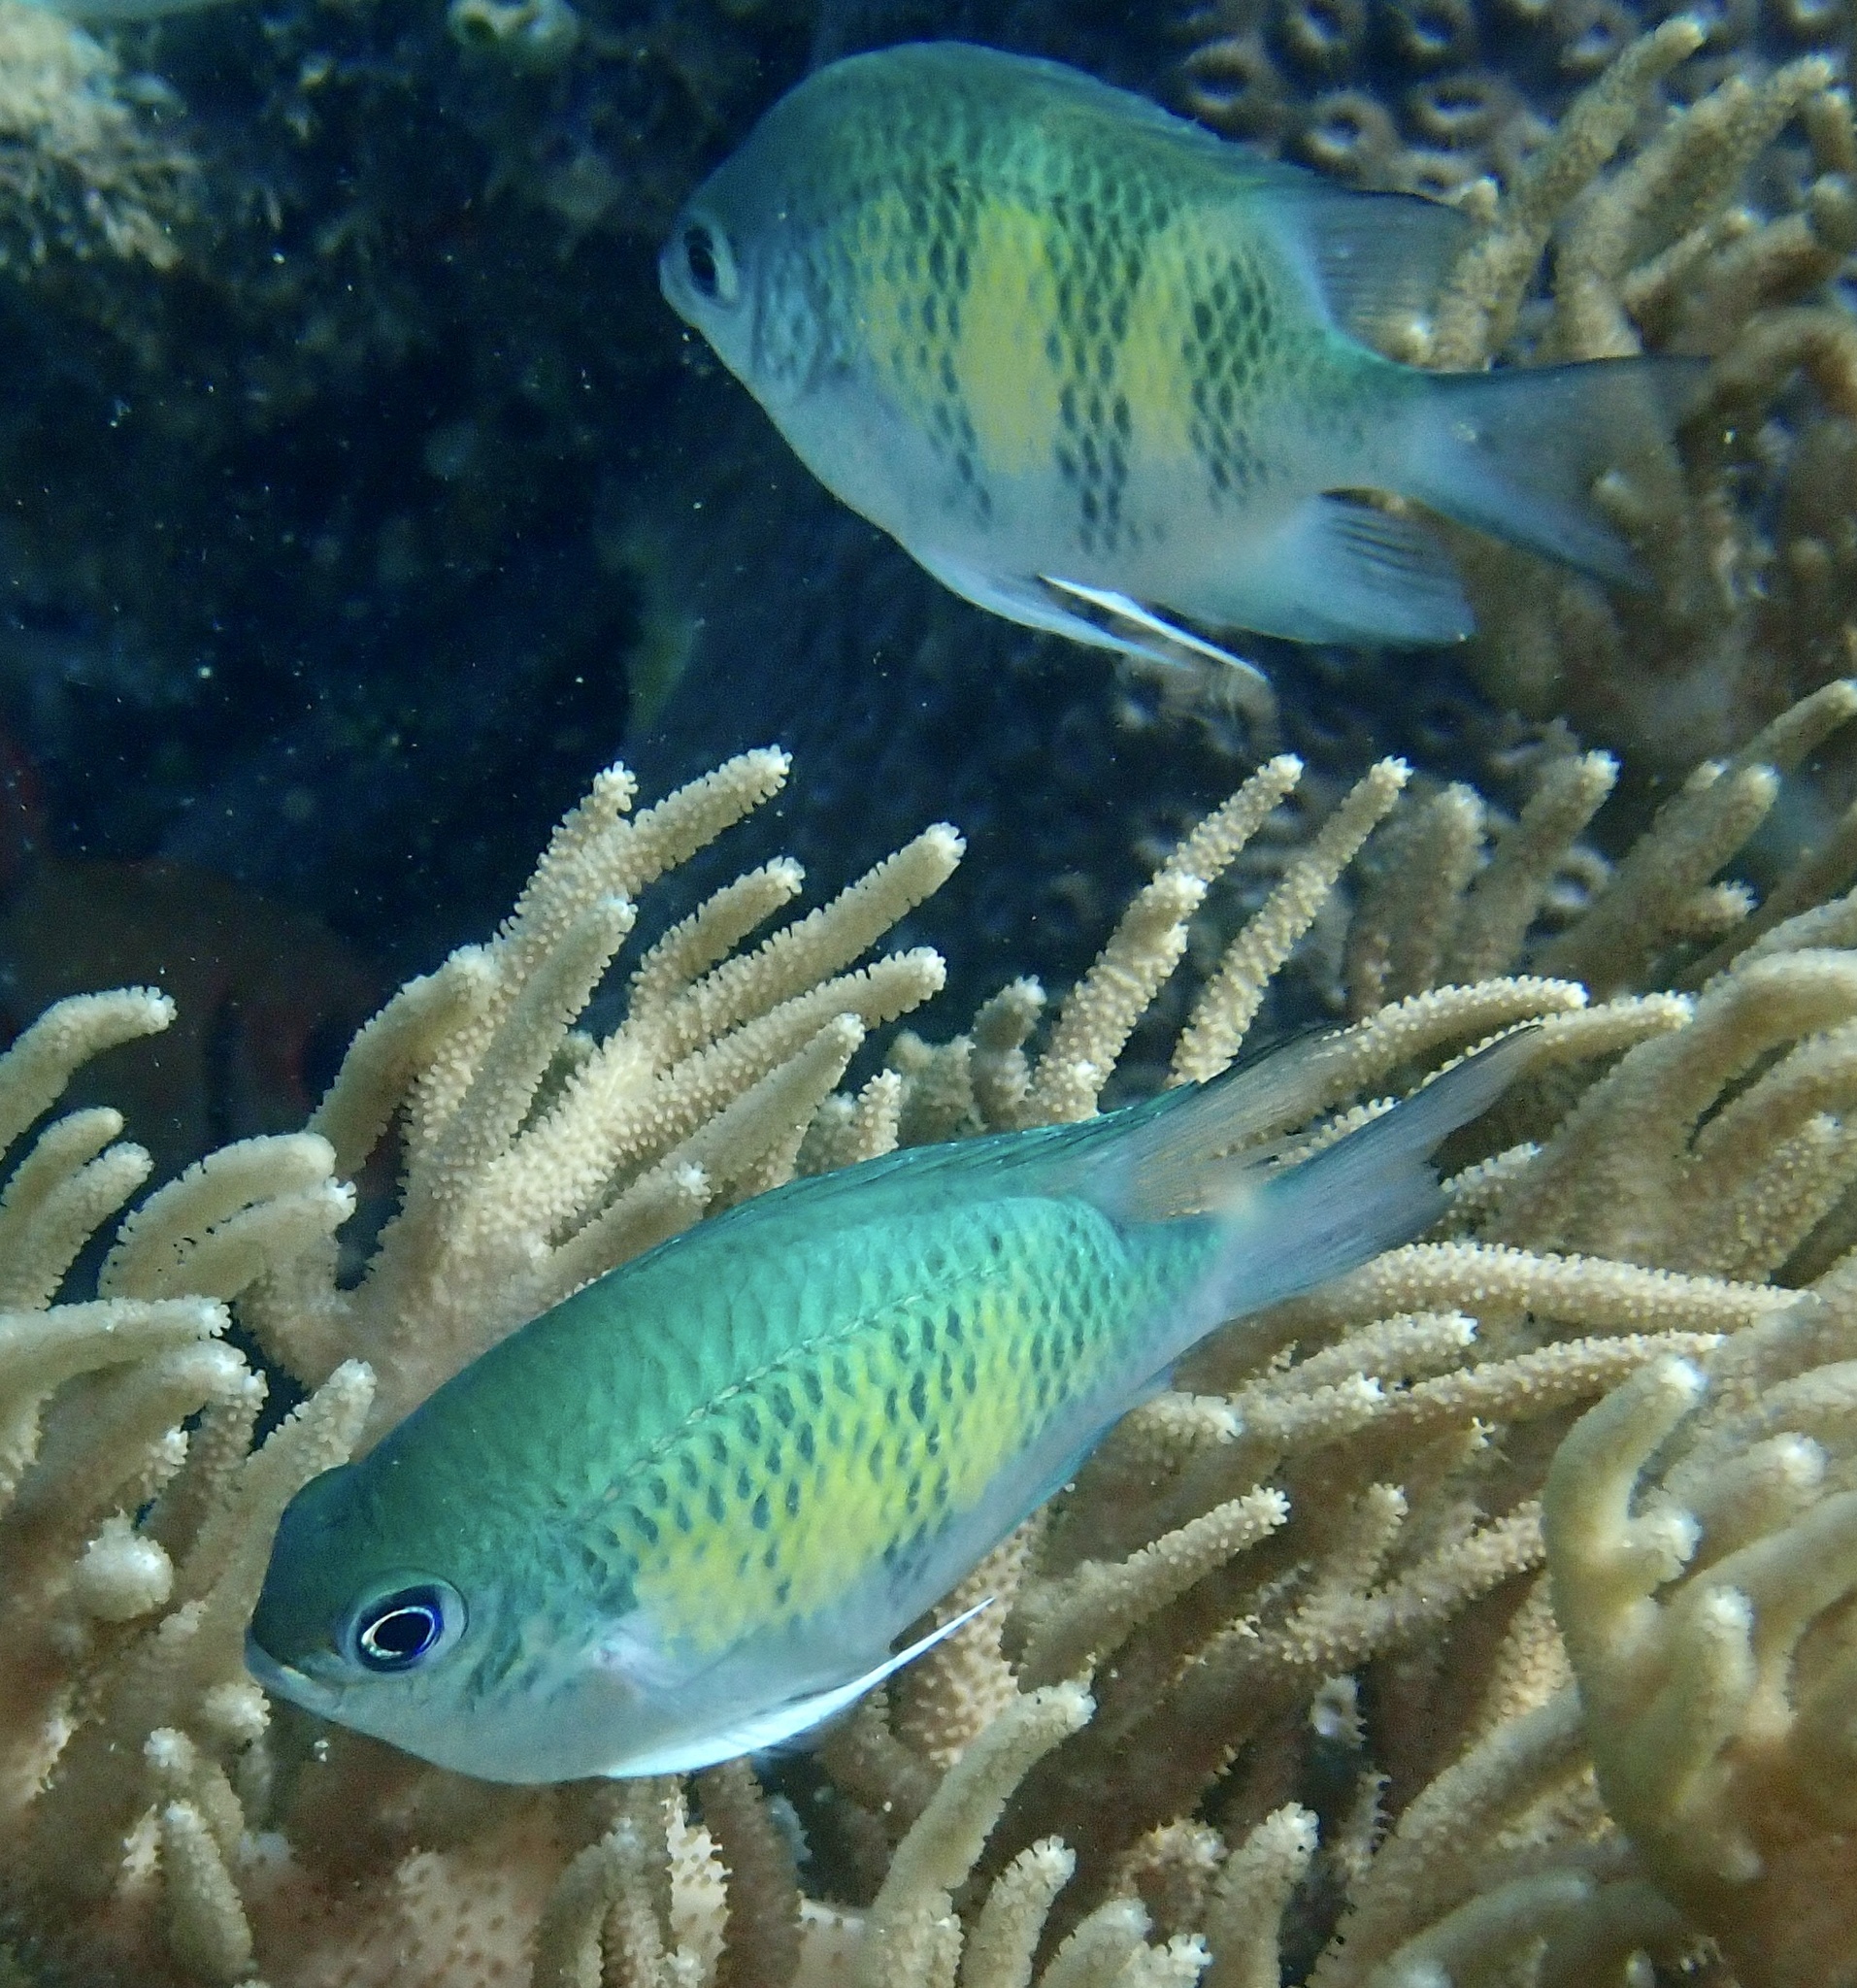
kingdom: Animalia
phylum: Chordata
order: Perciformes
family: Pomacentridae
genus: Amblyglyphidodon
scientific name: Amblyglyphidodon curacao
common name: Staghorn damsel
